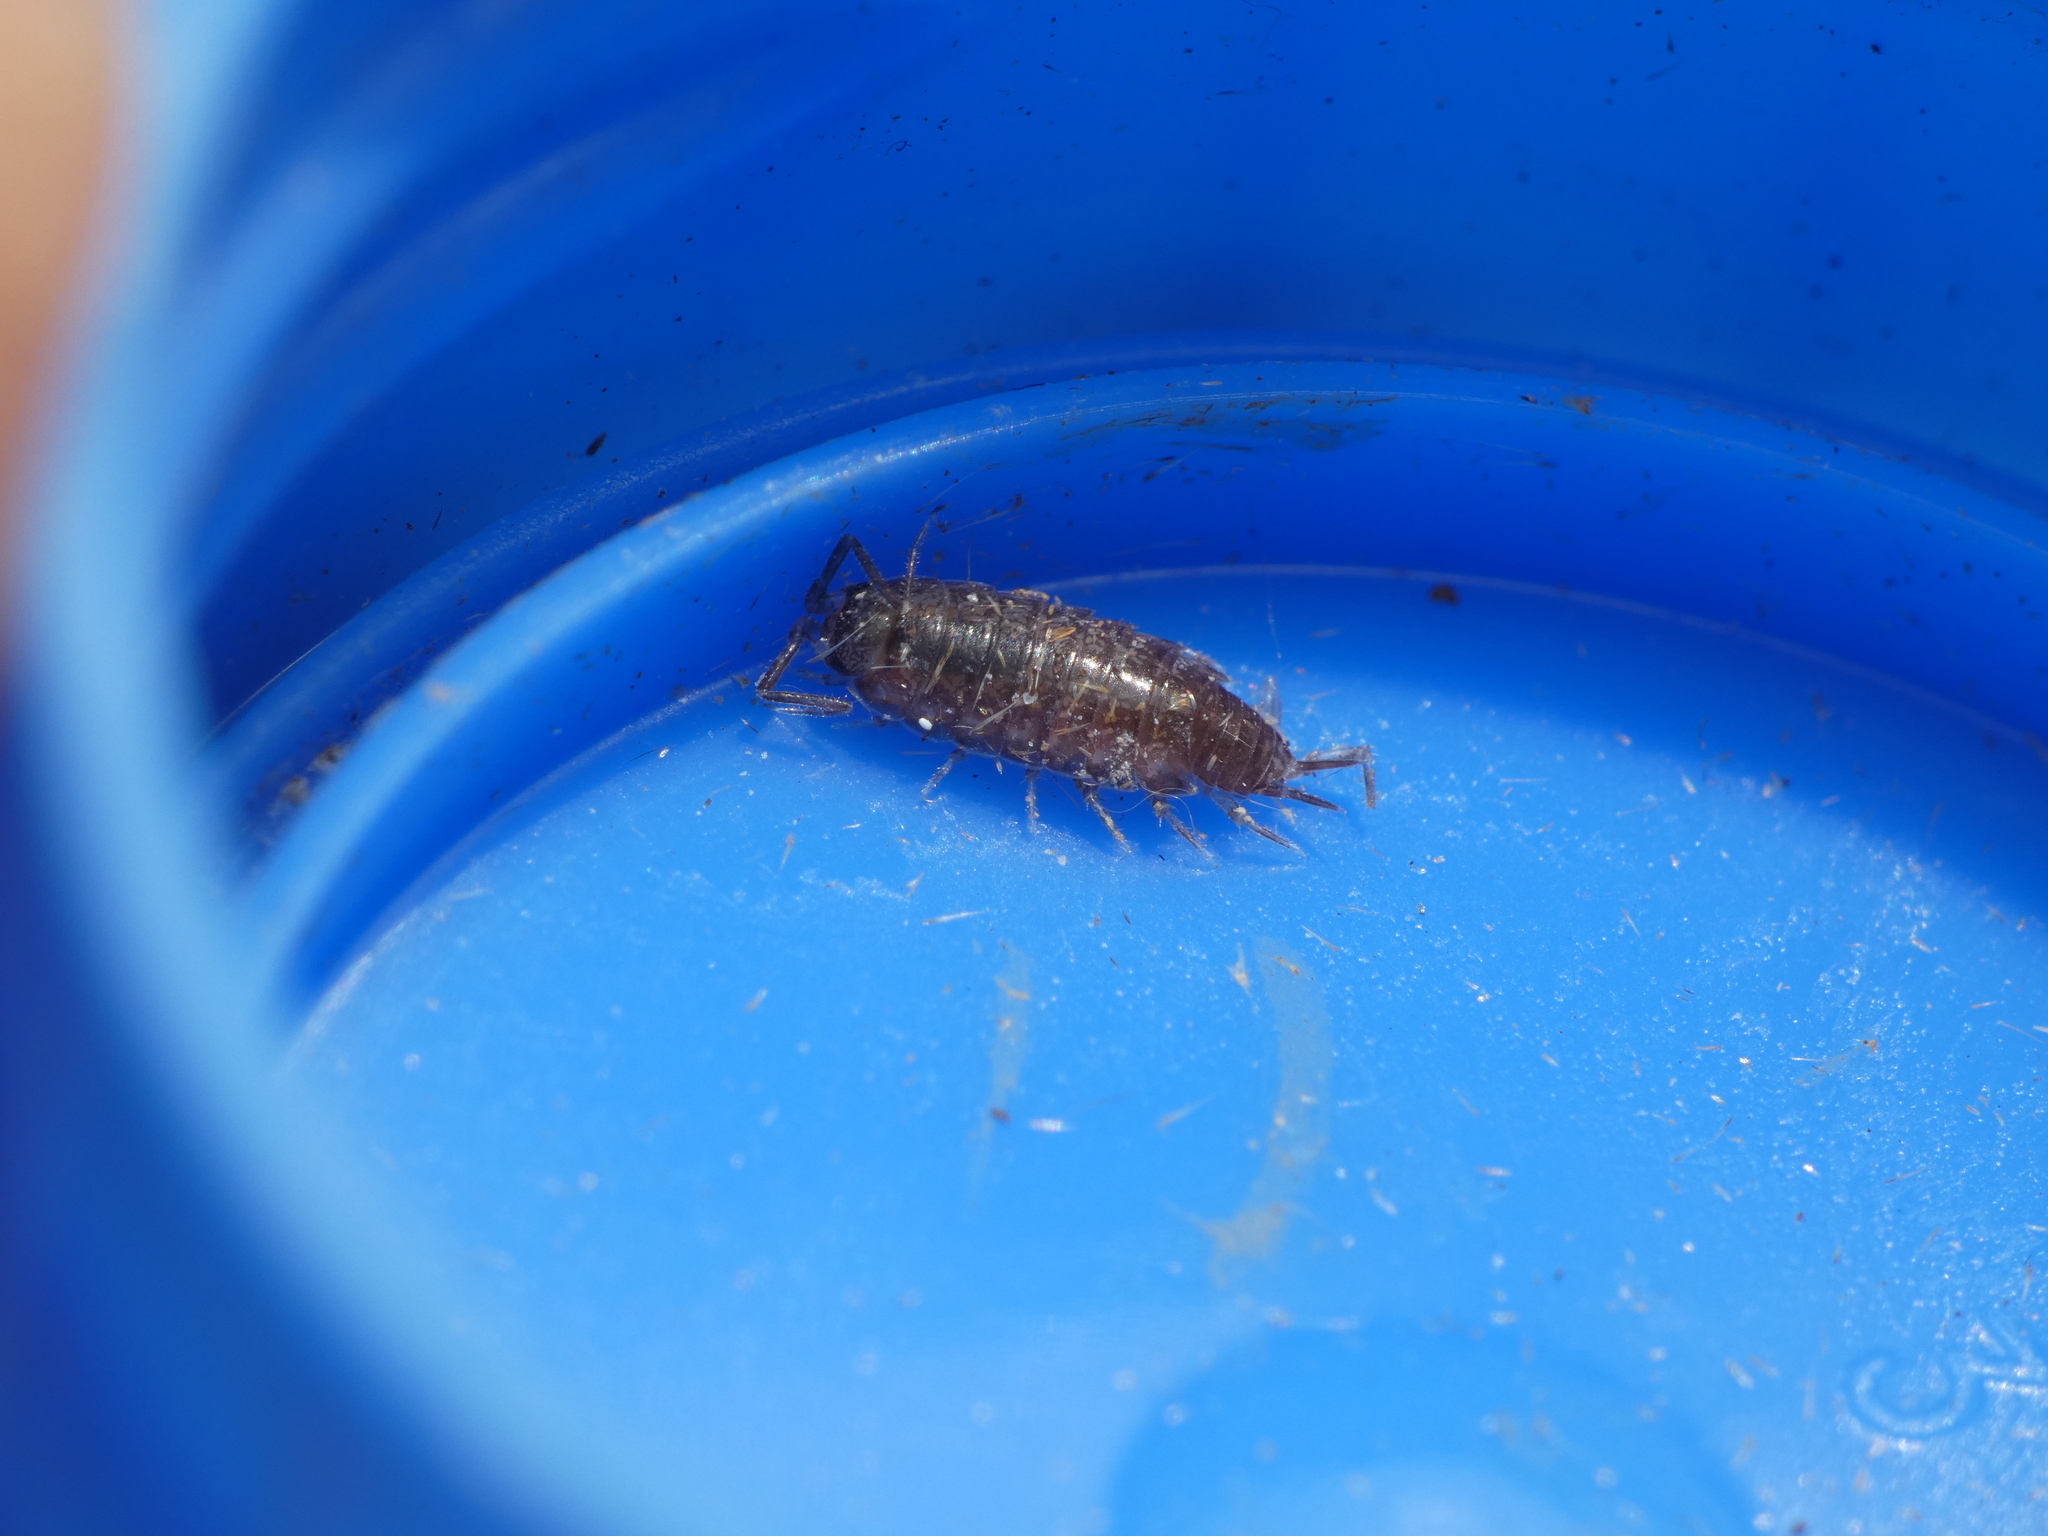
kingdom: Animalia
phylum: Arthropoda
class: Malacostraca
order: Isopoda
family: Philosciidae
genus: Chaetophiloscia
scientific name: Chaetophiloscia sicula
